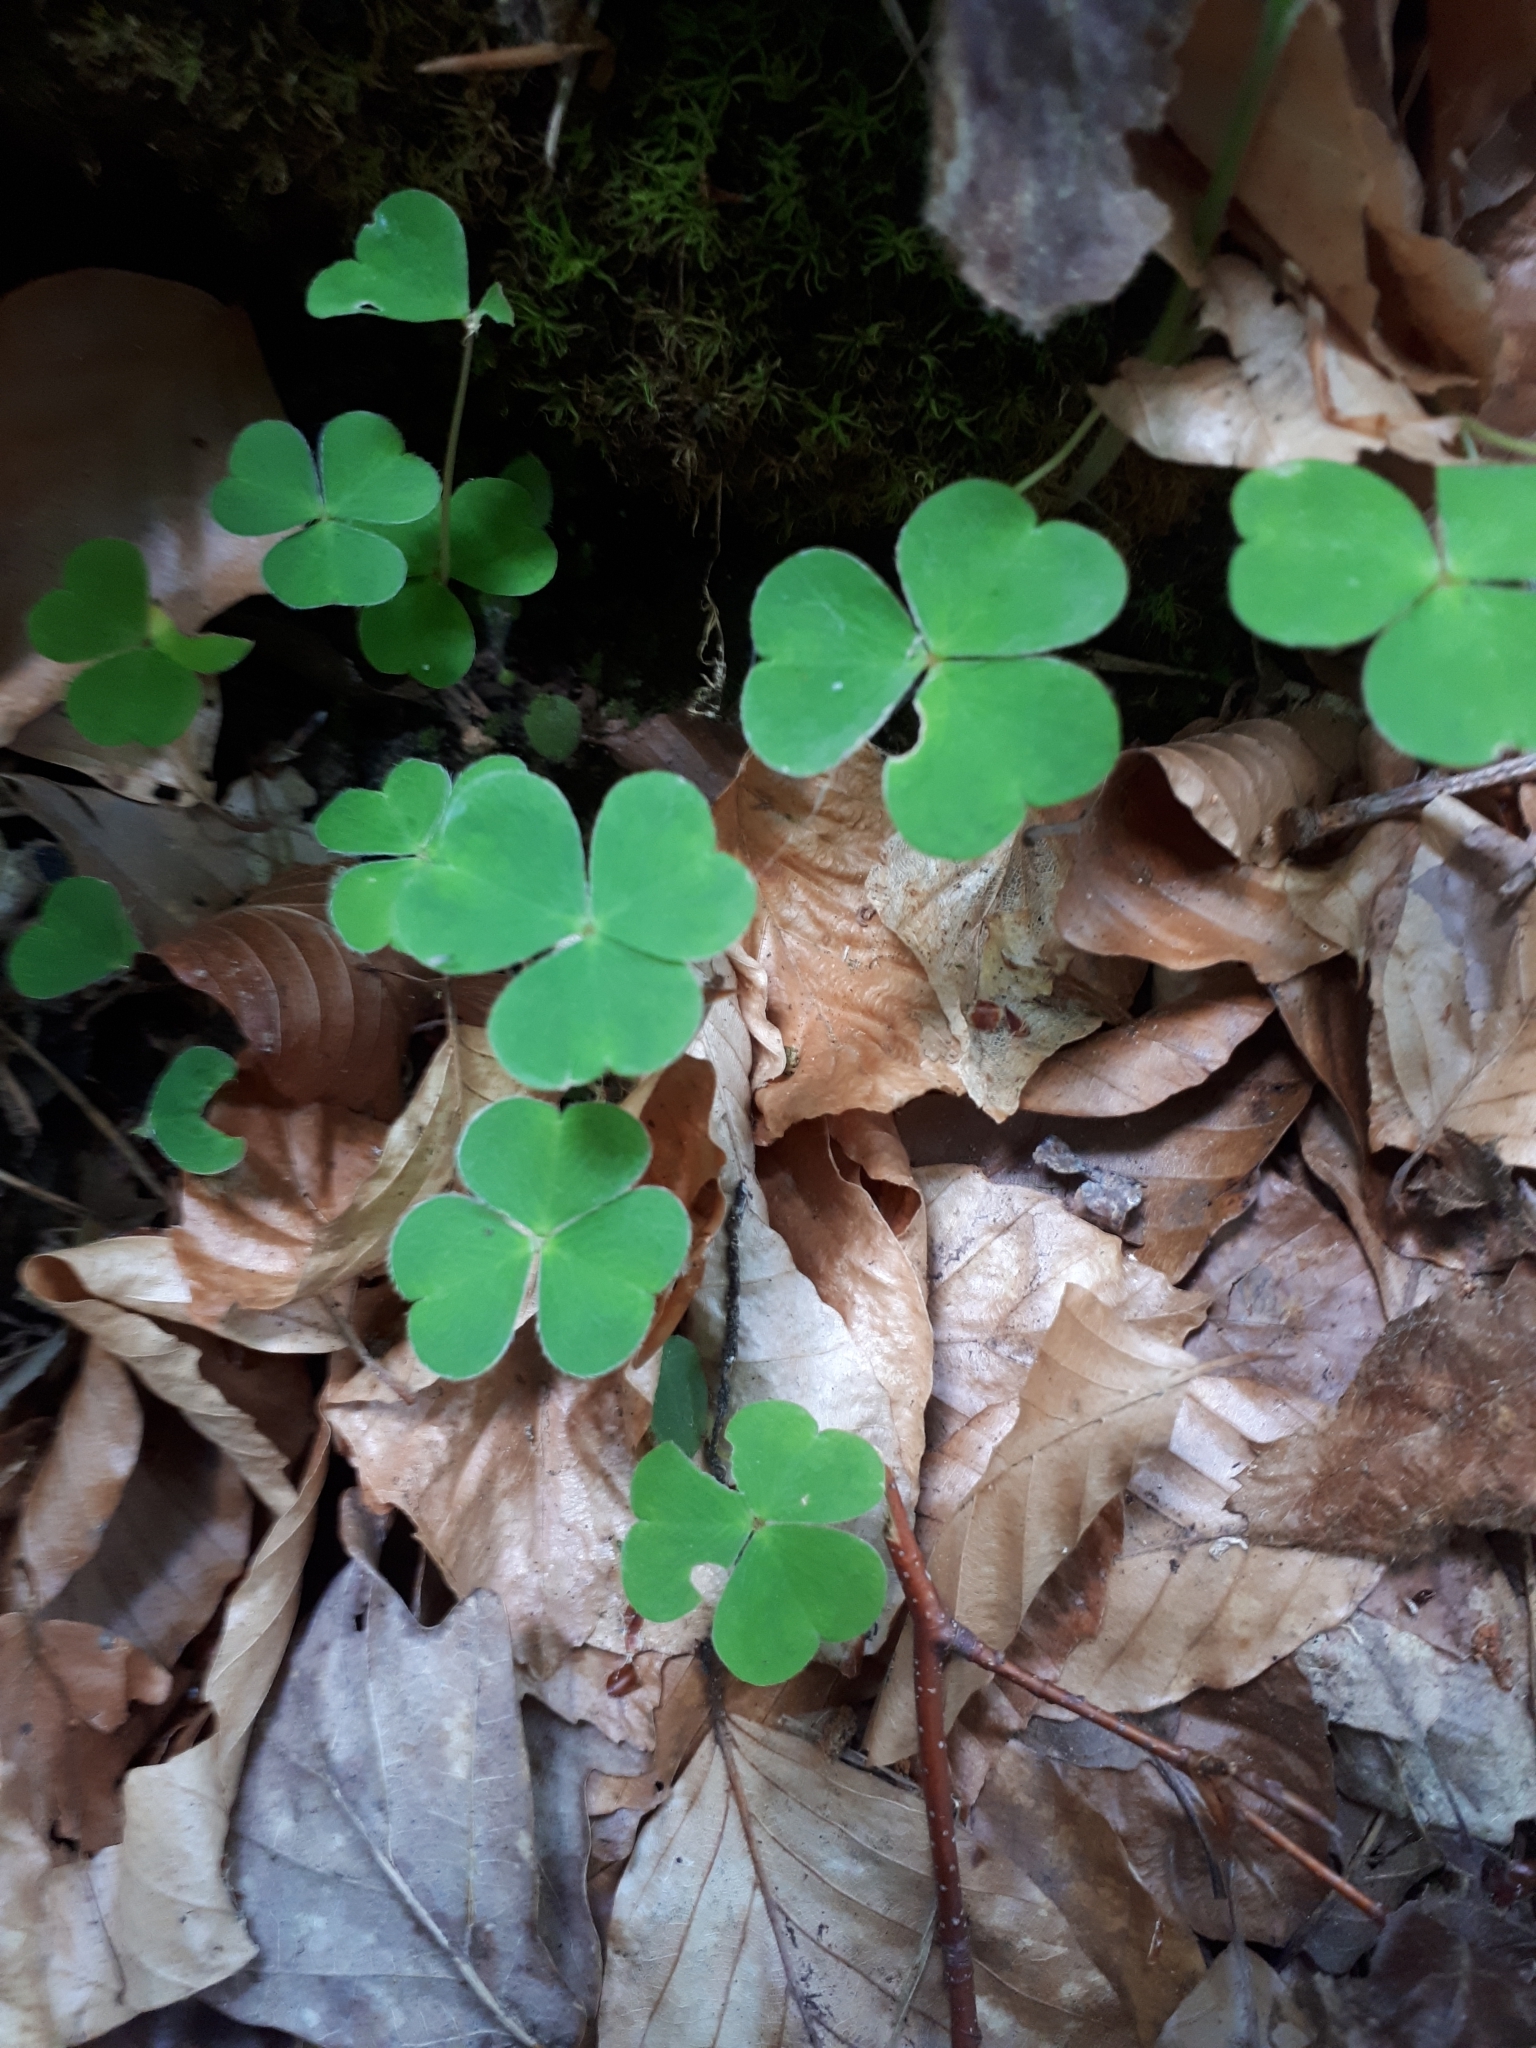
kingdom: Plantae
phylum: Tracheophyta
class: Magnoliopsida
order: Oxalidales
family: Oxalidaceae
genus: Oxalis
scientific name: Oxalis acetosella
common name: Wood-sorrel
